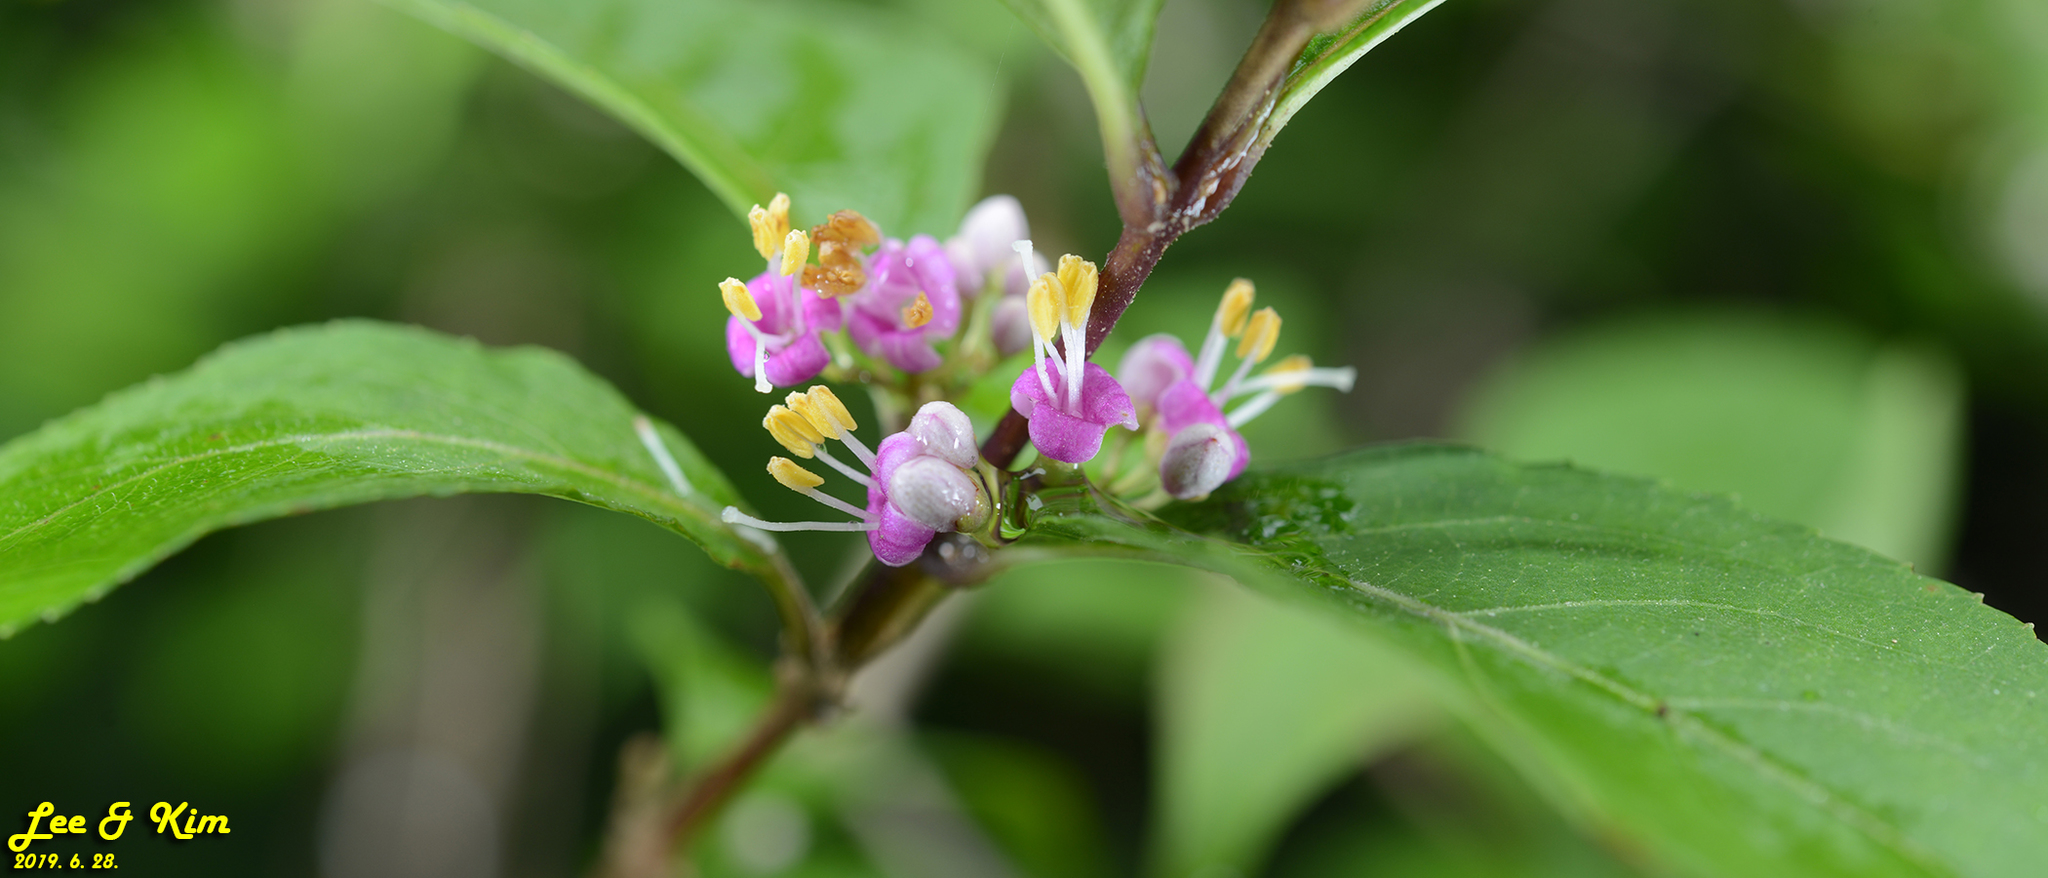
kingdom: Plantae
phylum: Tracheophyta
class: Magnoliopsida
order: Lamiales
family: Lamiaceae
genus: Callicarpa
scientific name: Callicarpa japonica
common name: Japanese beauty-berry
